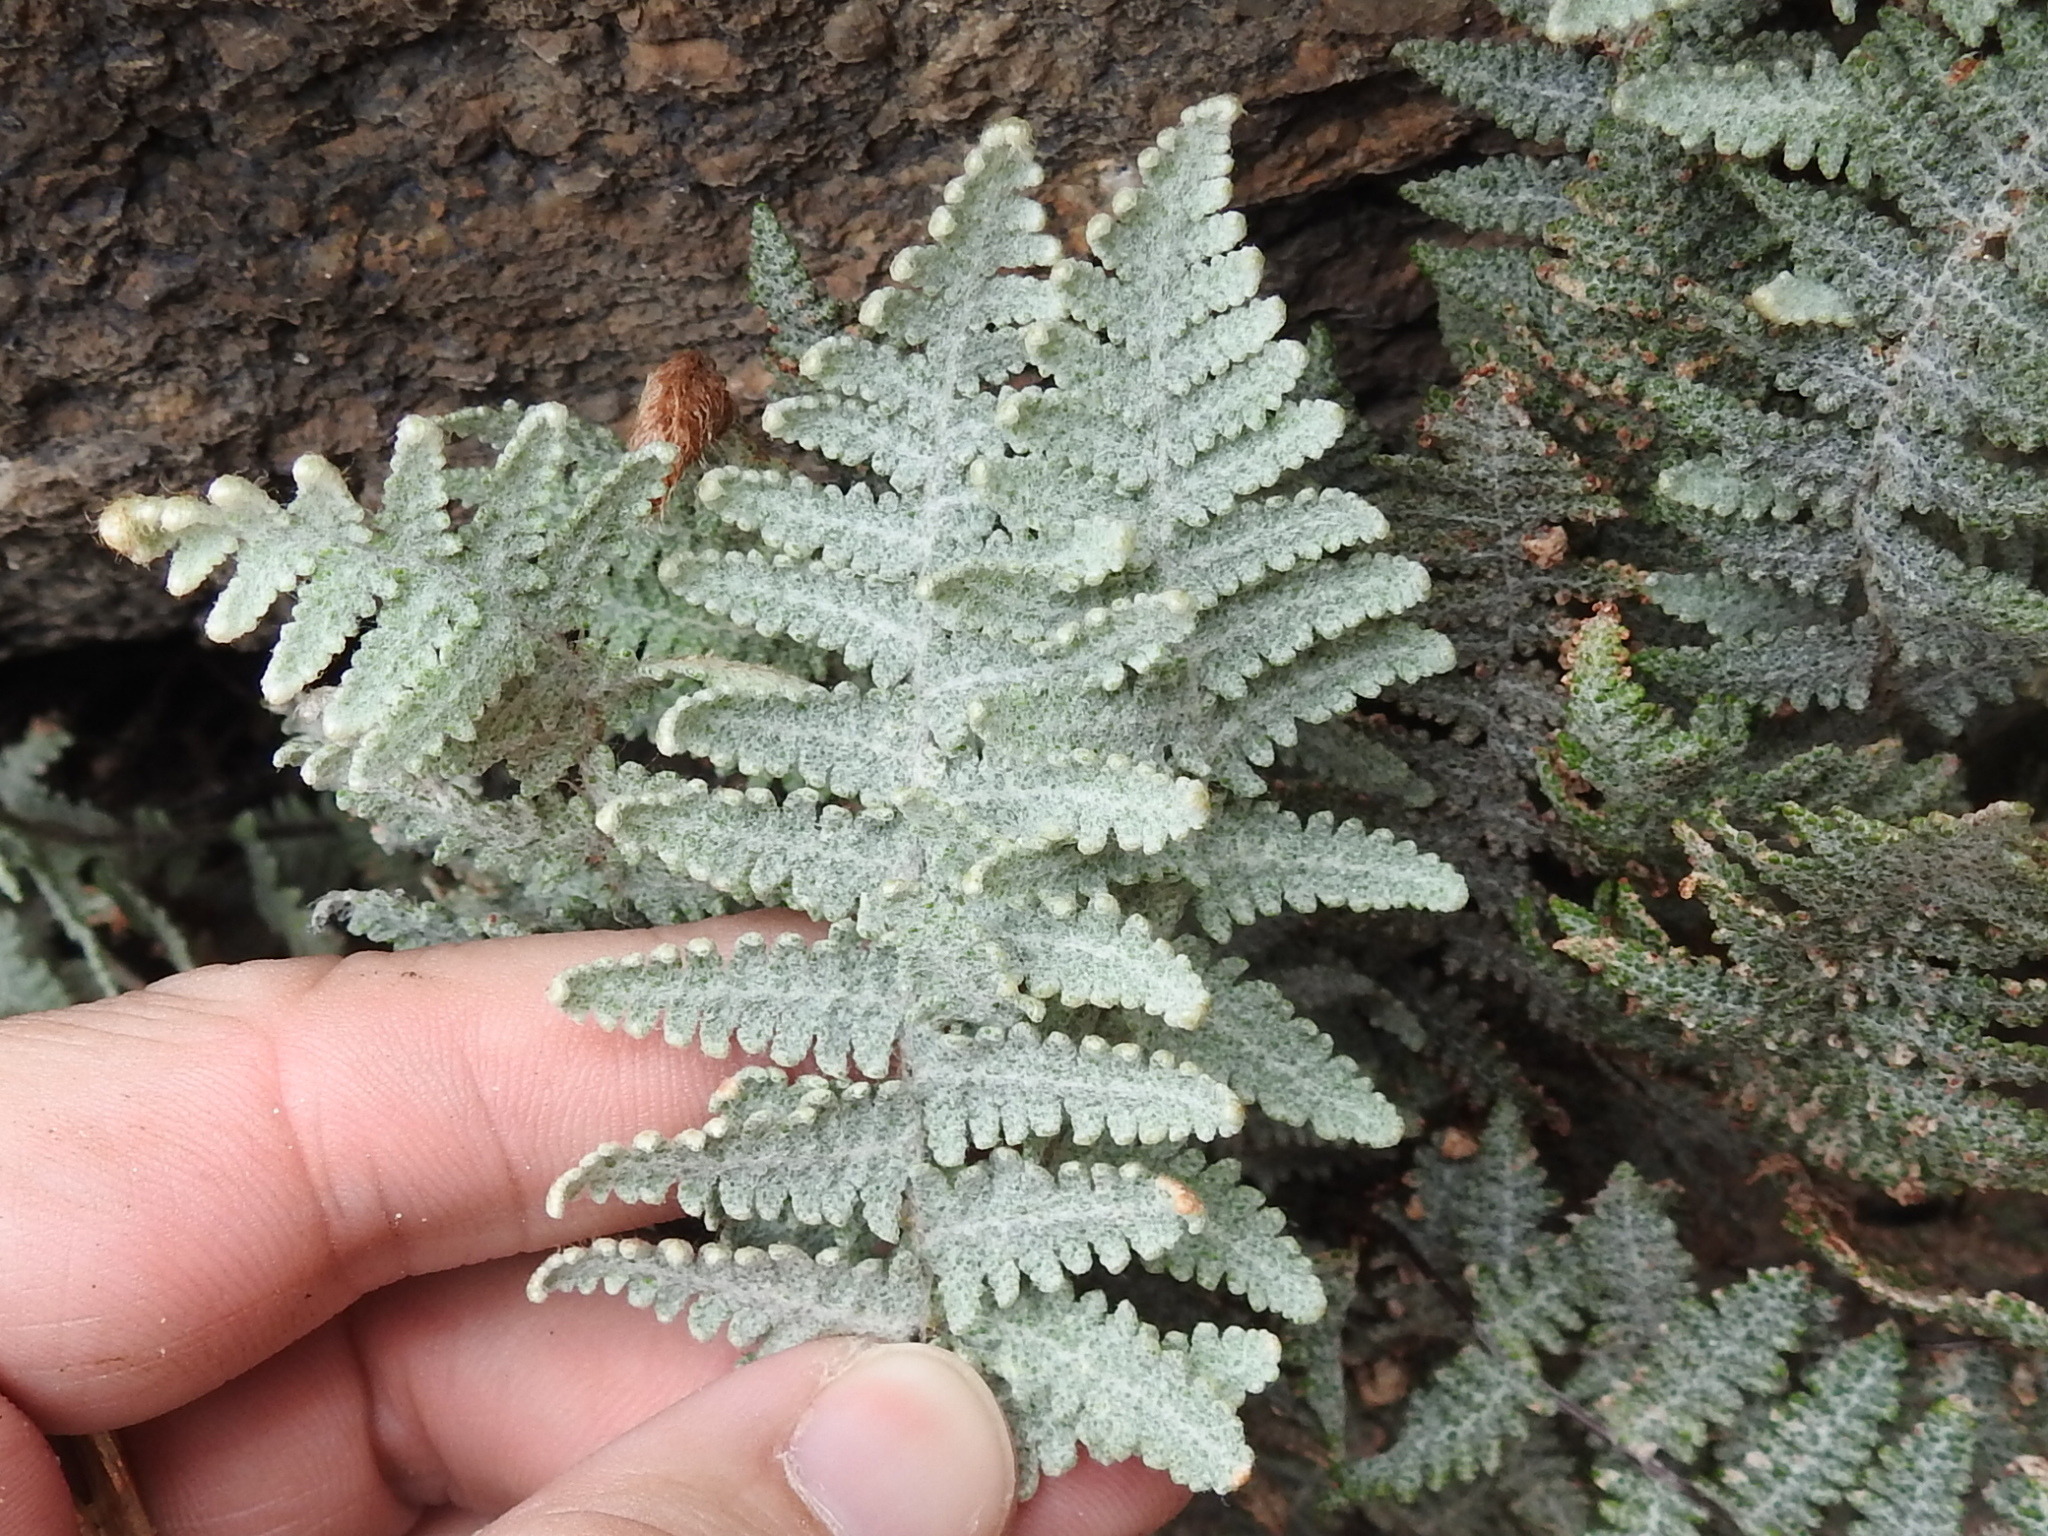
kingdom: Plantae
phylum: Tracheophyta
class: Polypodiopsida
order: Polypodiales
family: Pteridaceae
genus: Myriopteris
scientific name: Myriopteris lindheimeri
